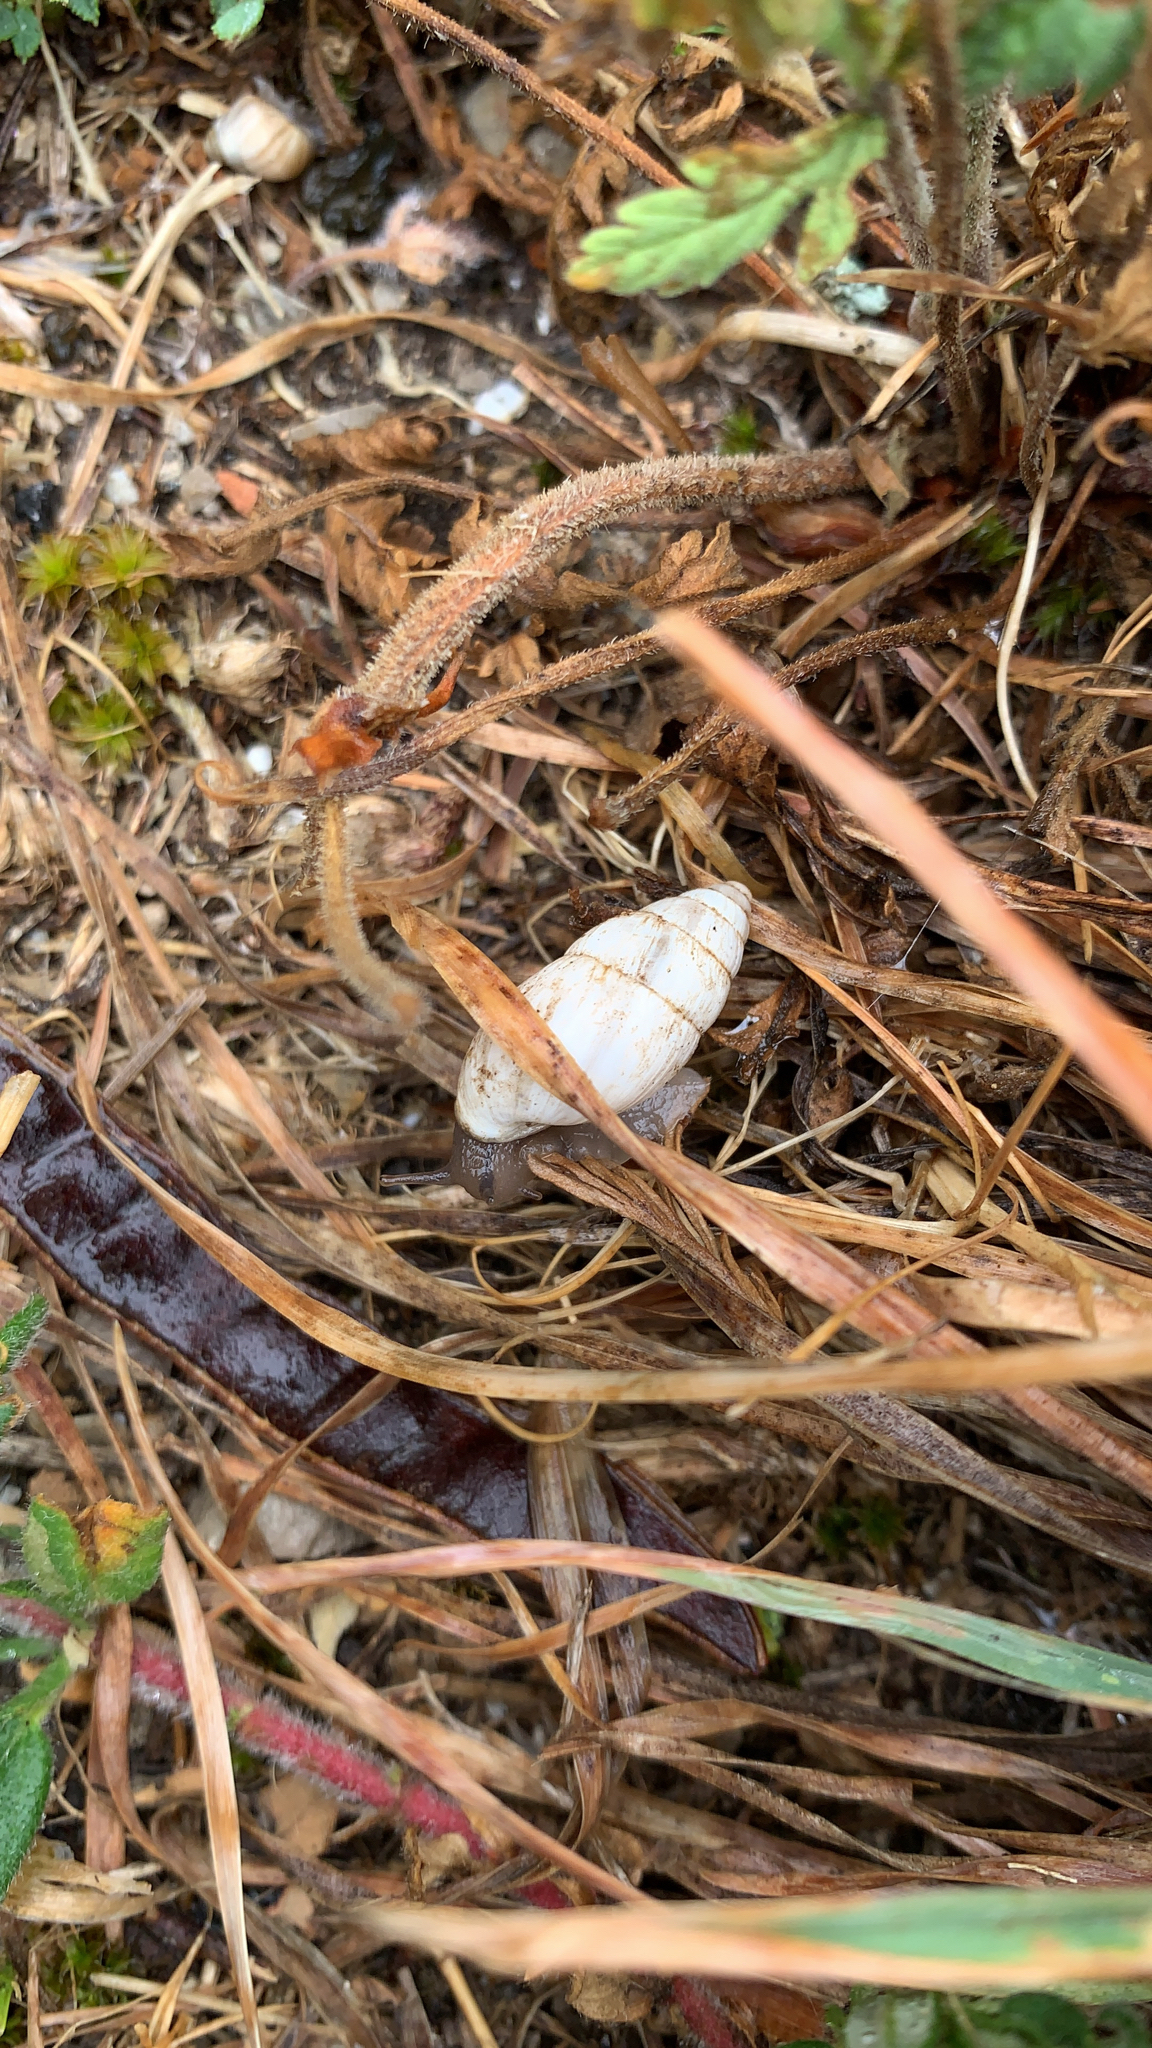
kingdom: Animalia
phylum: Mollusca
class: Gastropoda
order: Stylommatophora
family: Enidae
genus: Zebrina
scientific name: Zebrina detrita
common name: Large bulin
